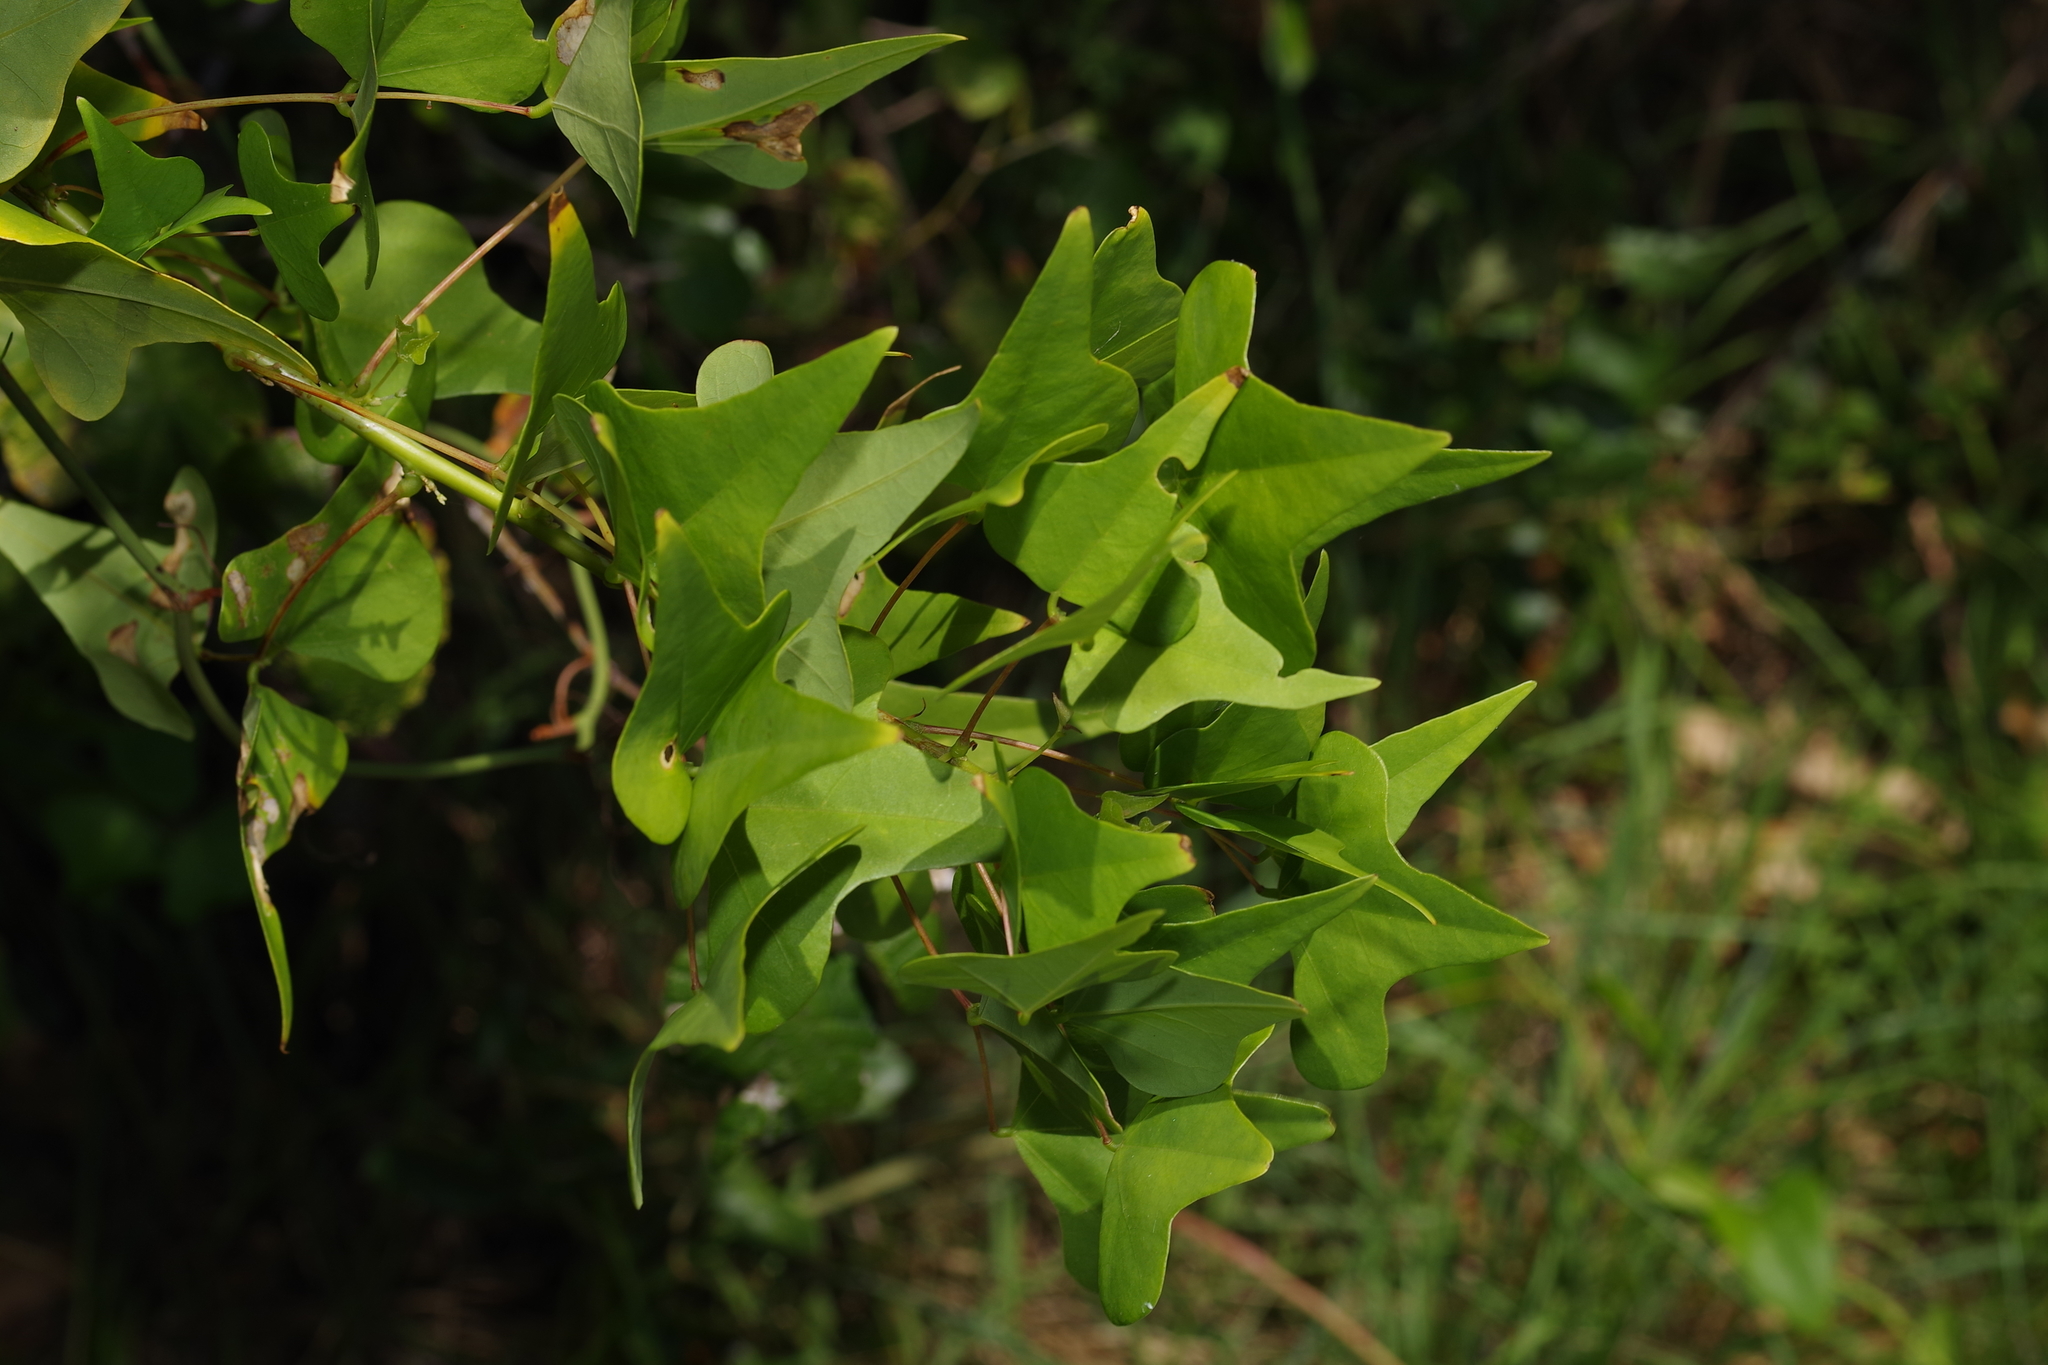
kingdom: Plantae
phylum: Tracheophyta
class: Magnoliopsida
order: Fabales
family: Fabaceae
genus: Erythrina
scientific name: Erythrina herbacea
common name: Coral-bean
